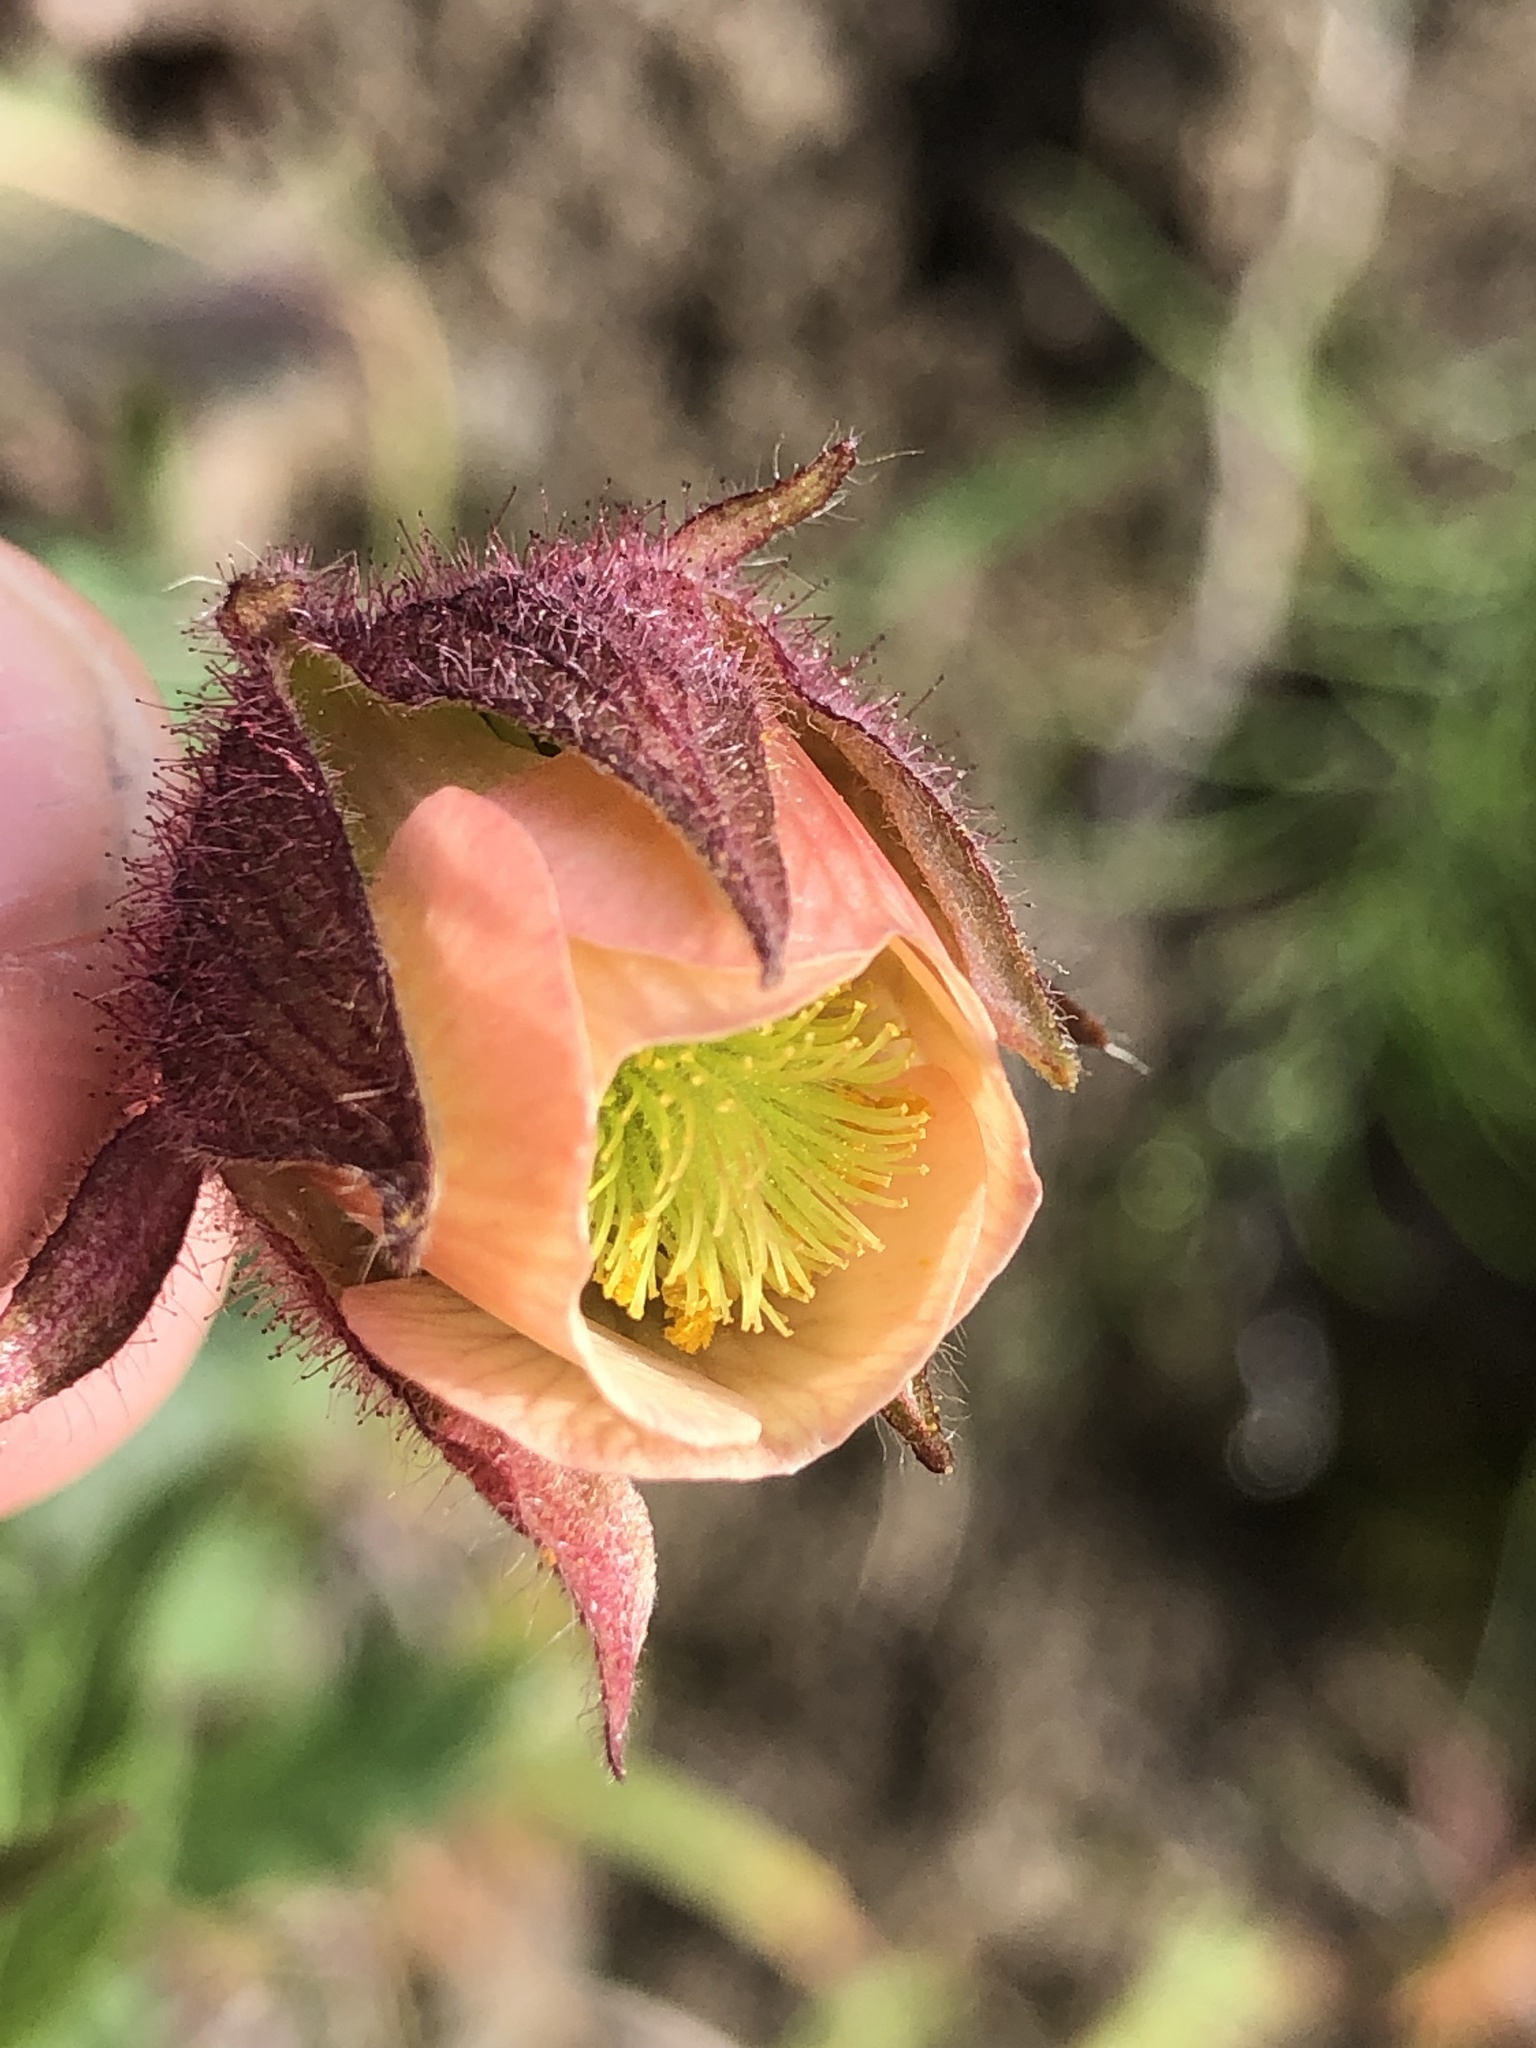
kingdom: Plantae
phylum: Tracheophyta
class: Magnoliopsida
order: Rosales
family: Rosaceae
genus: Geum
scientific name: Geum rivale
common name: Water avens
